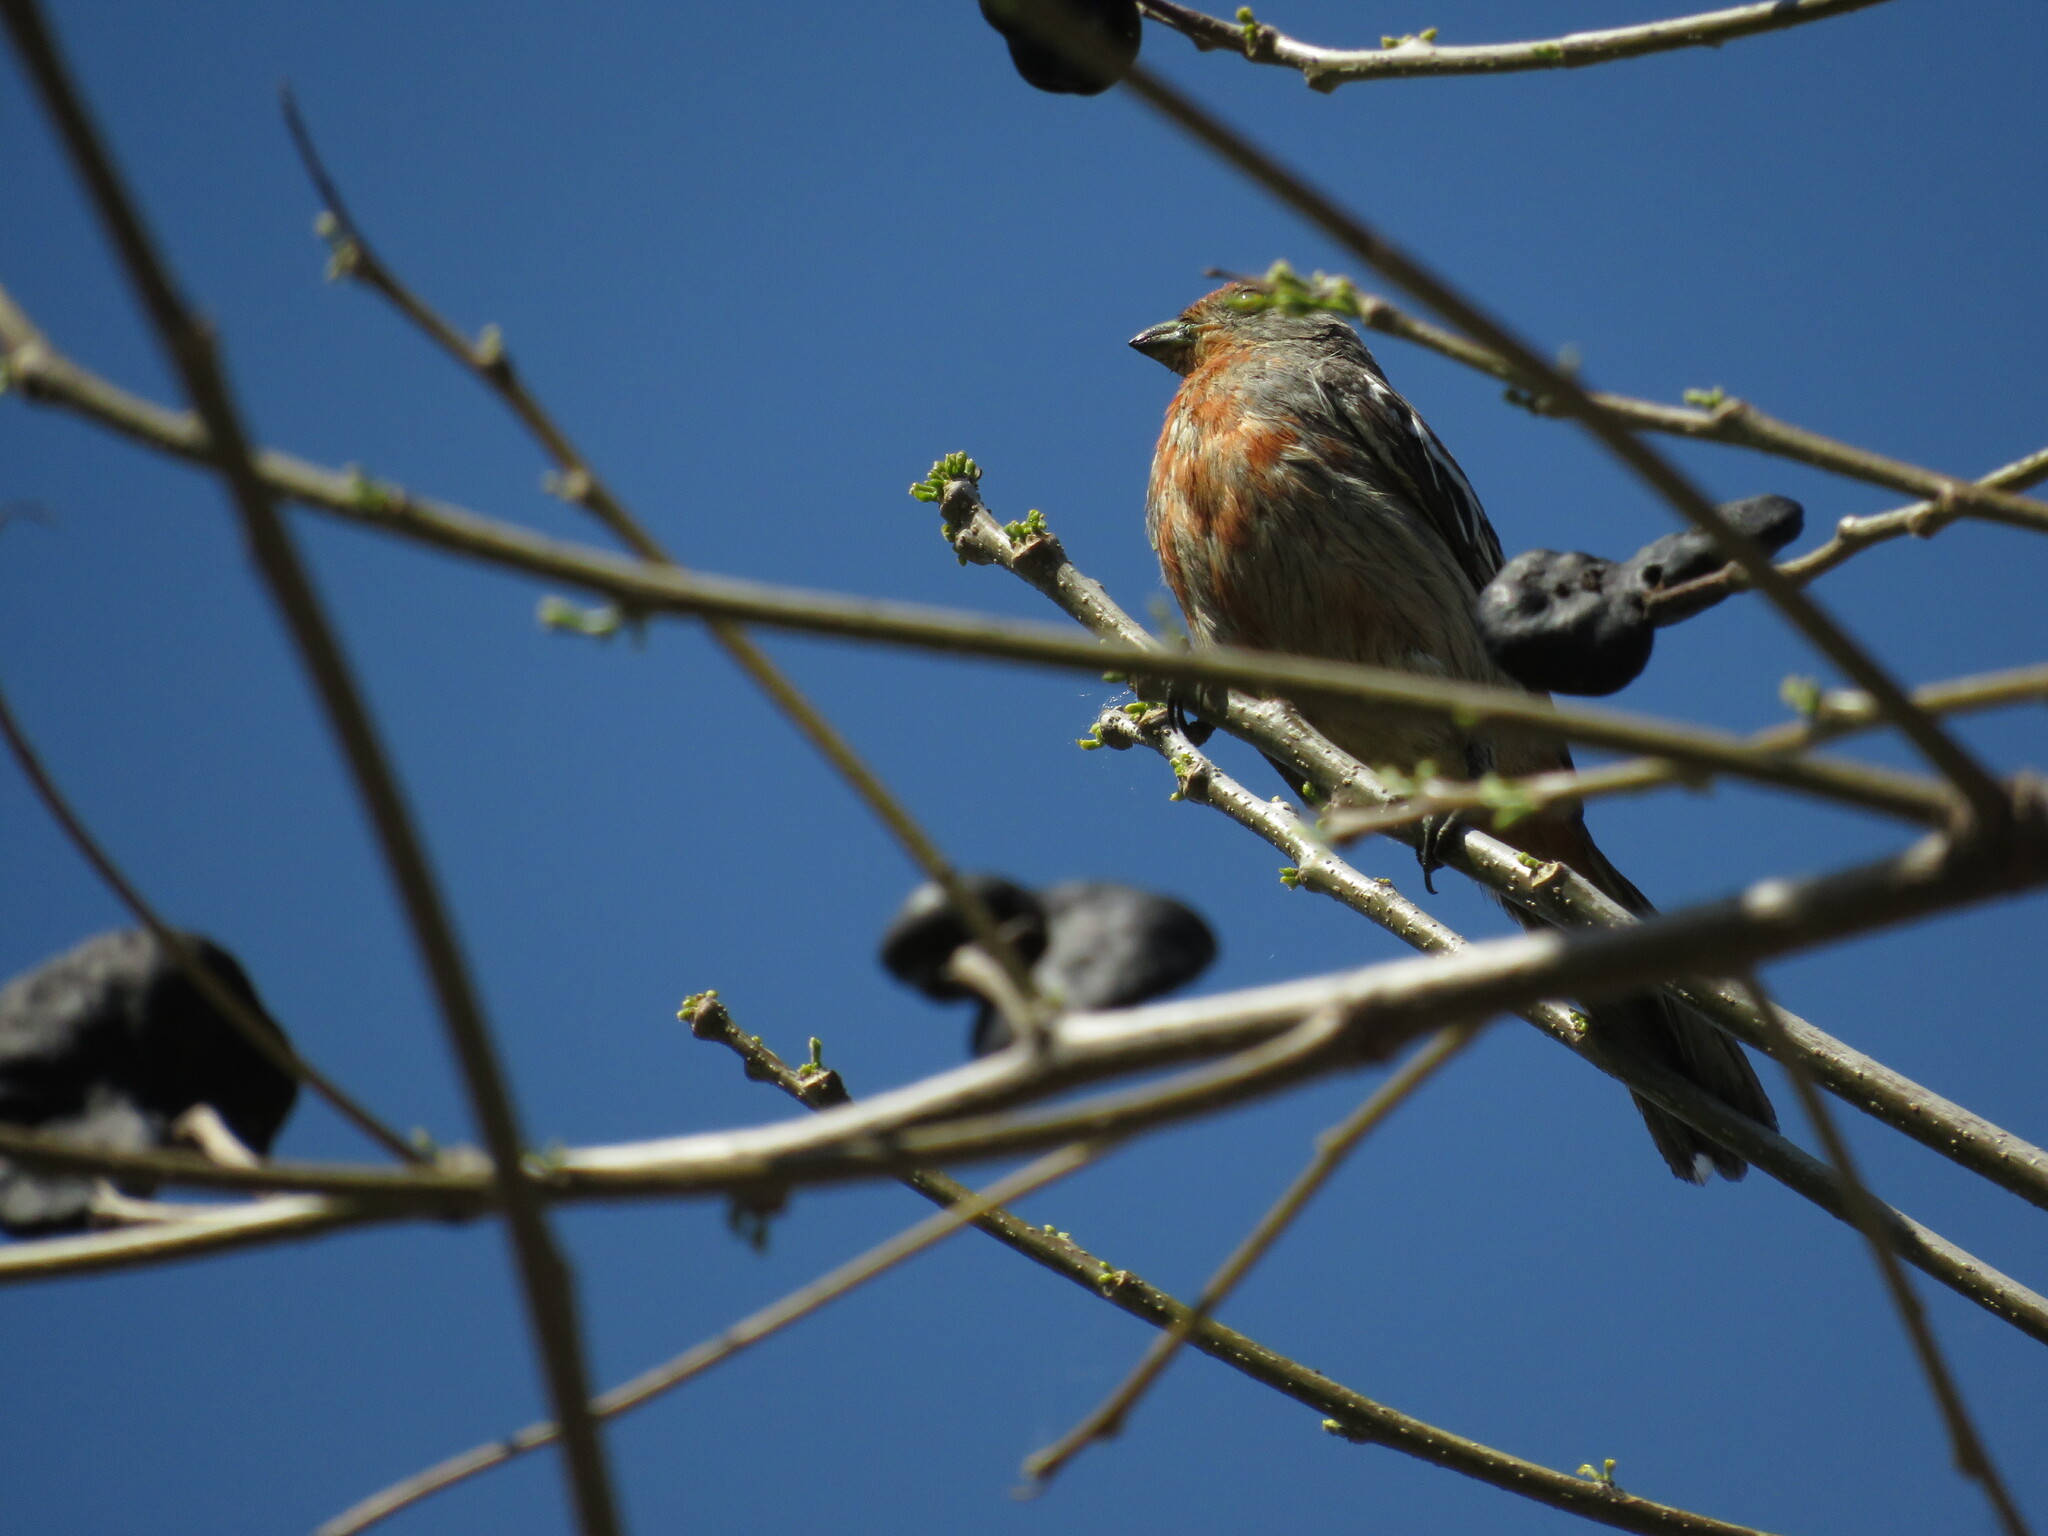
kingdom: Animalia
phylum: Chordata
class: Aves
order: Passeriformes
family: Cotingidae
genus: Phytotoma
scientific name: Phytotoma rutila
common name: White-tipped plantcutter
